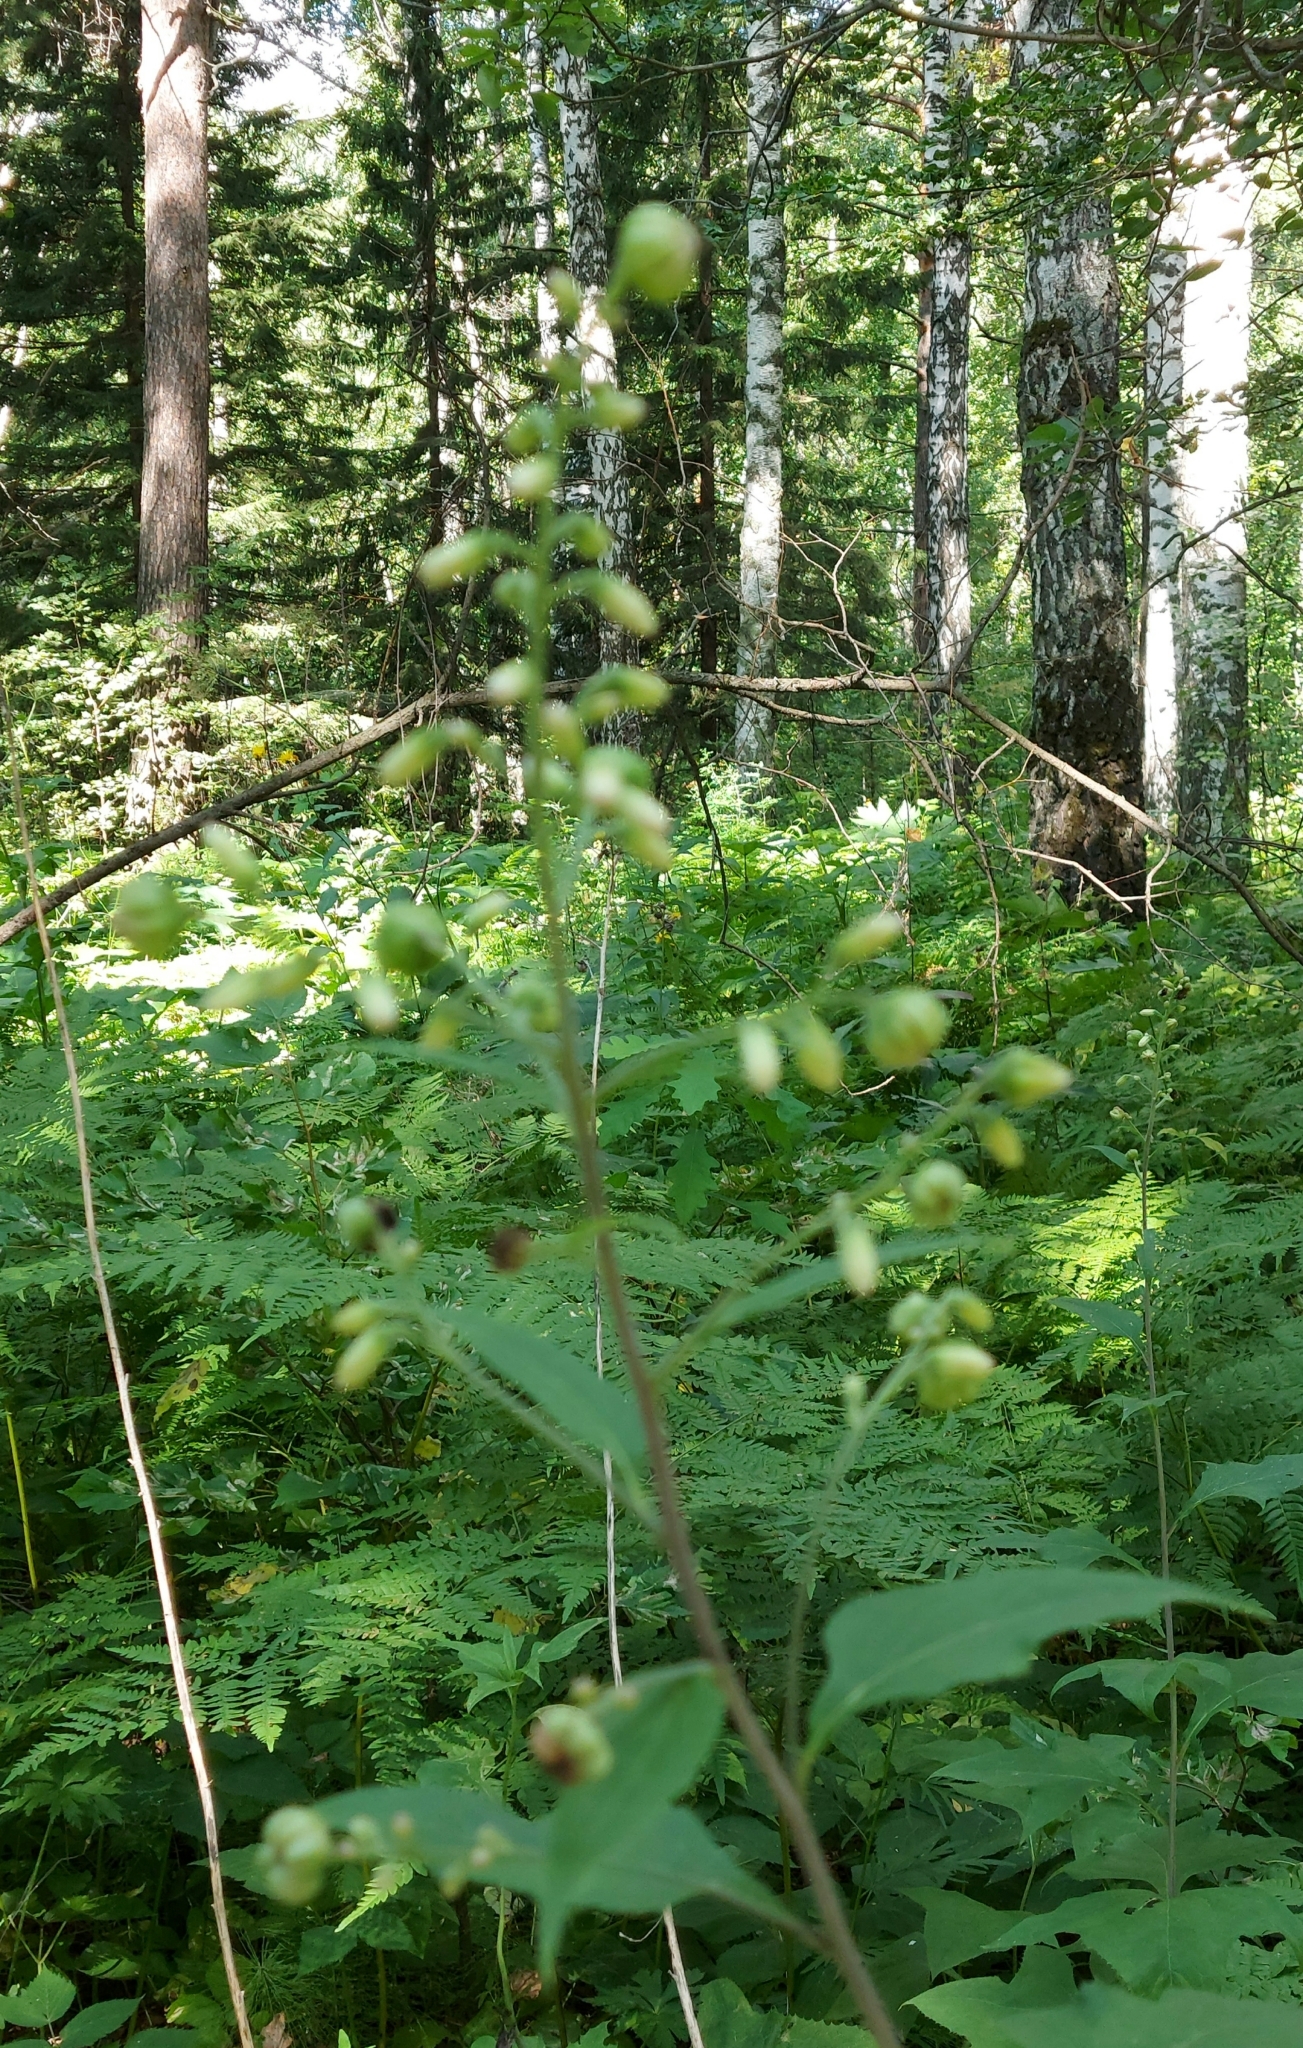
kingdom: Plantae
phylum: Tracheophyta
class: Magnoliopsida
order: Asterales
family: Asteraceae
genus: Parasenecio
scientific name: Parasenecio hastatus
